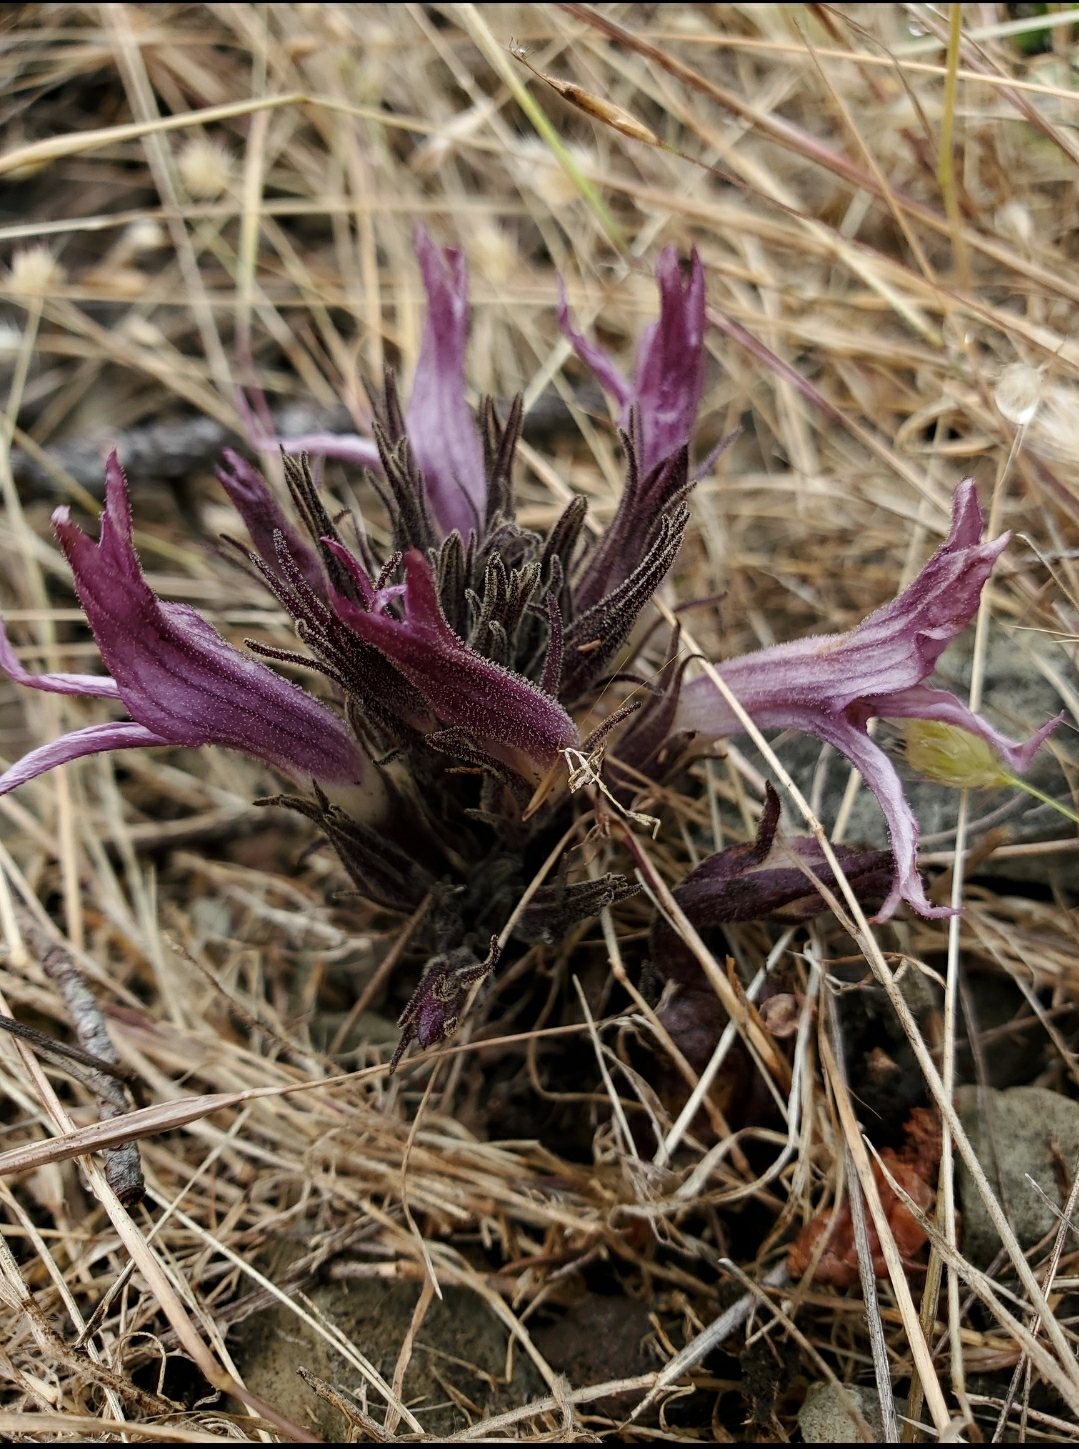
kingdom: Plantae
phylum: Tracheophyta
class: Magnoliopsida
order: Lamiales
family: Orobanchaceae
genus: Aphyllon
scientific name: Aphyllon californicum
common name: California broomrape
